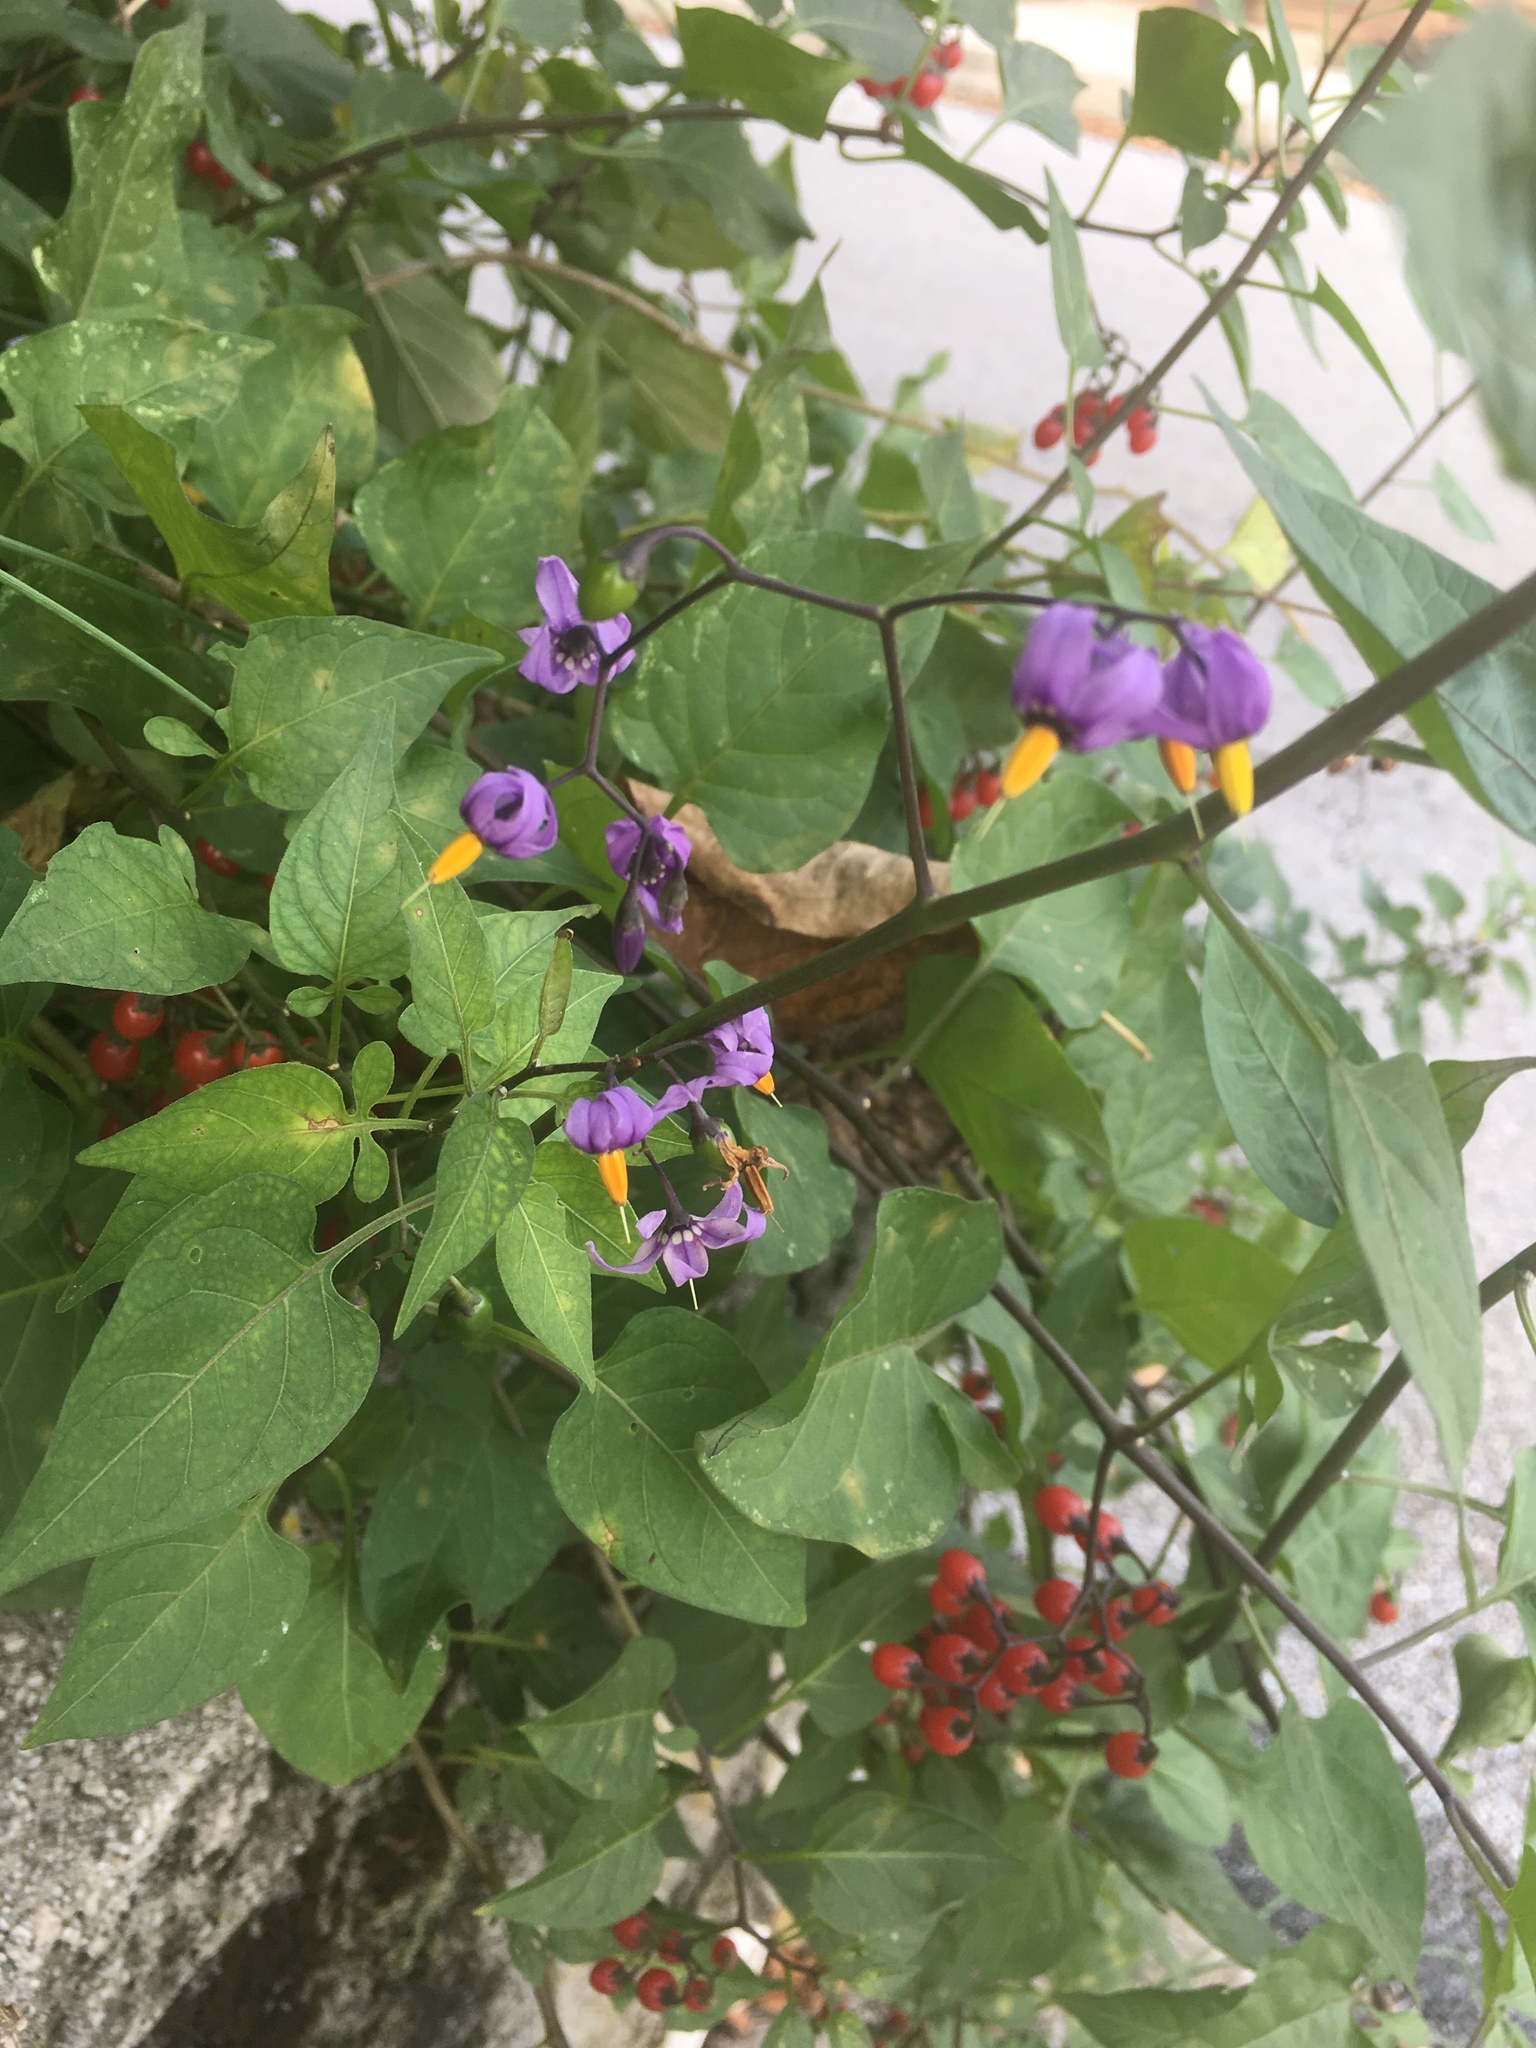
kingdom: Plantae
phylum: Tracheophyta
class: Magnoliopsida
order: Solanales
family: Solanaceae
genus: Solanum
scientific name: Solanum dulcamara
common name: Climbing nightshade
